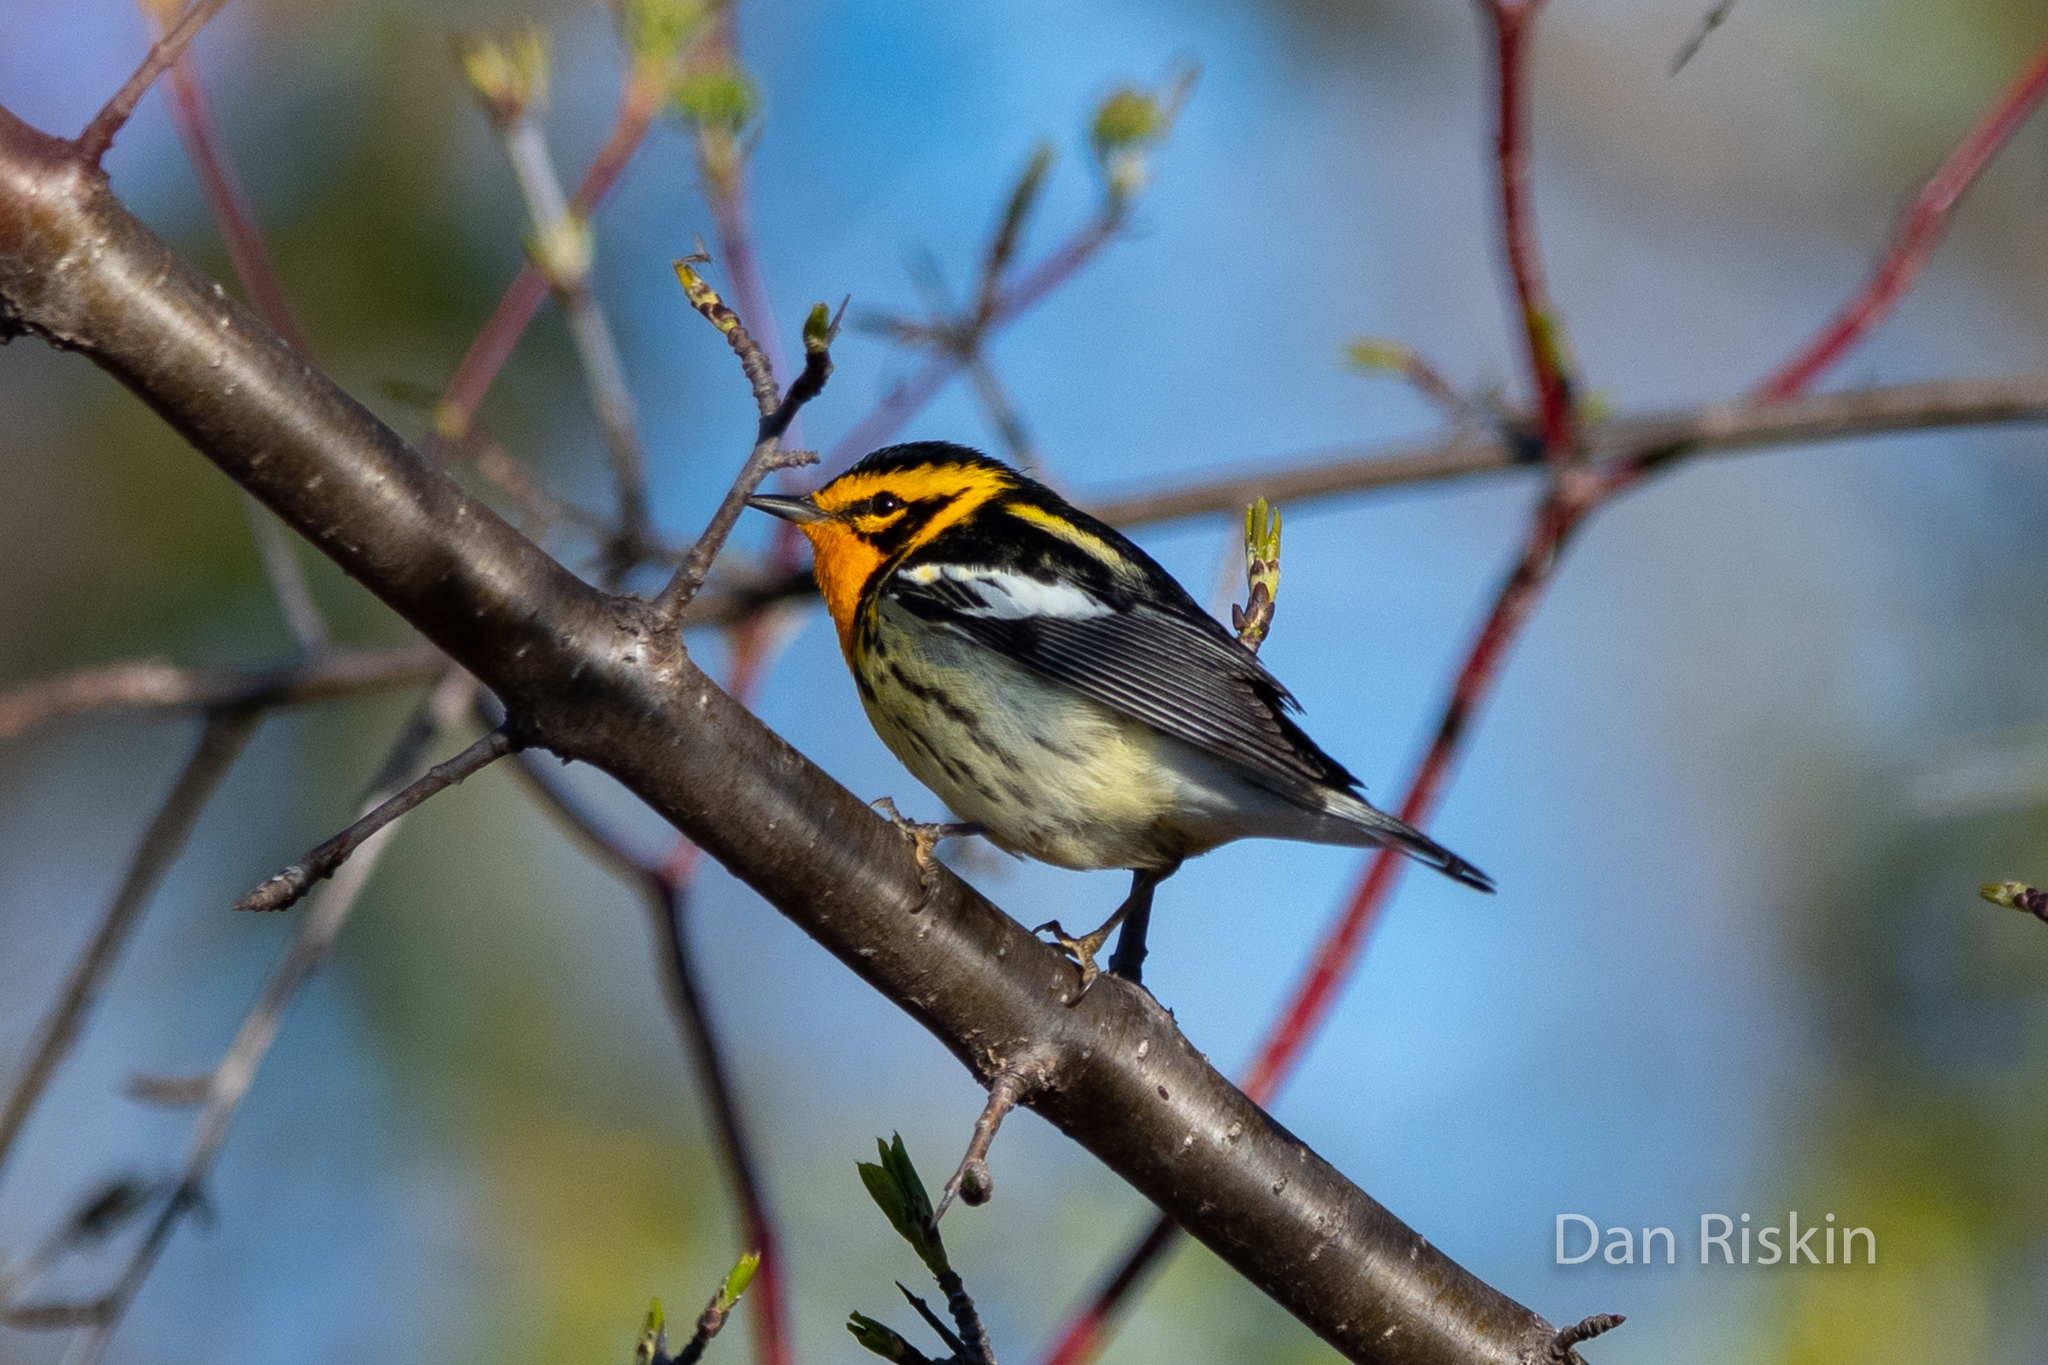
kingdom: Animalia
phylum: Chordata
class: Aves
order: Passeriformes
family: Parulidae
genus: Setophaga
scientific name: Setophaga fusca
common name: Blackburnian warbler
